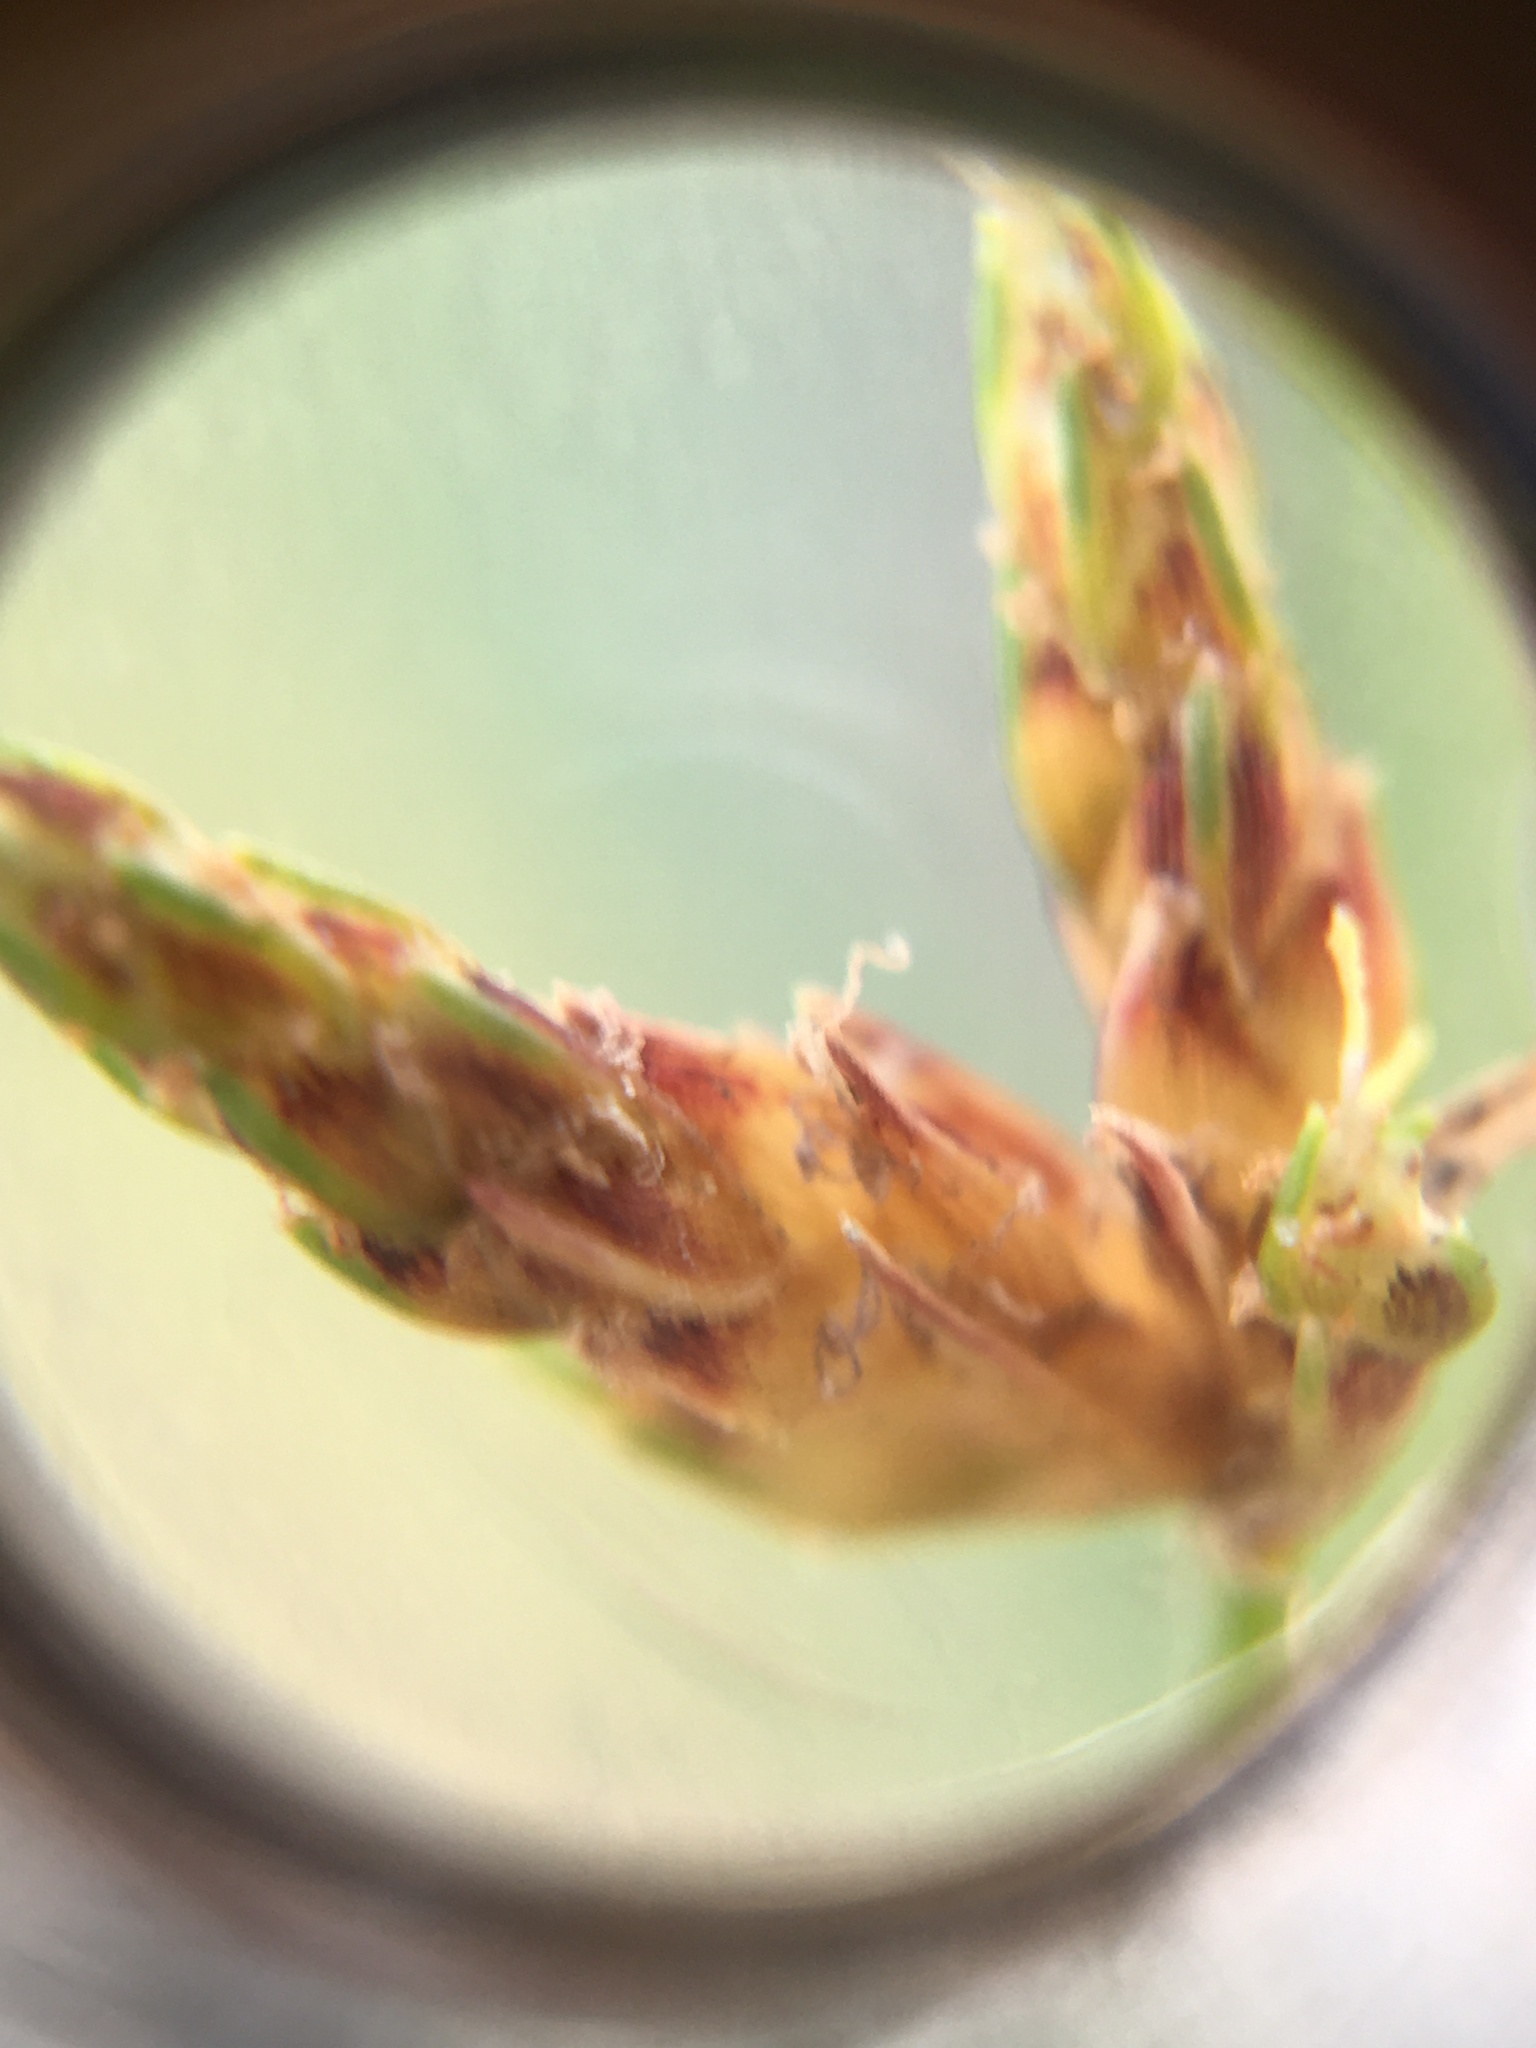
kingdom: Plantae
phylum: Tracheophyta
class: Liliopsida
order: Poales
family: Cyperaceae
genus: Isolepis
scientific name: Isolepis marginata
